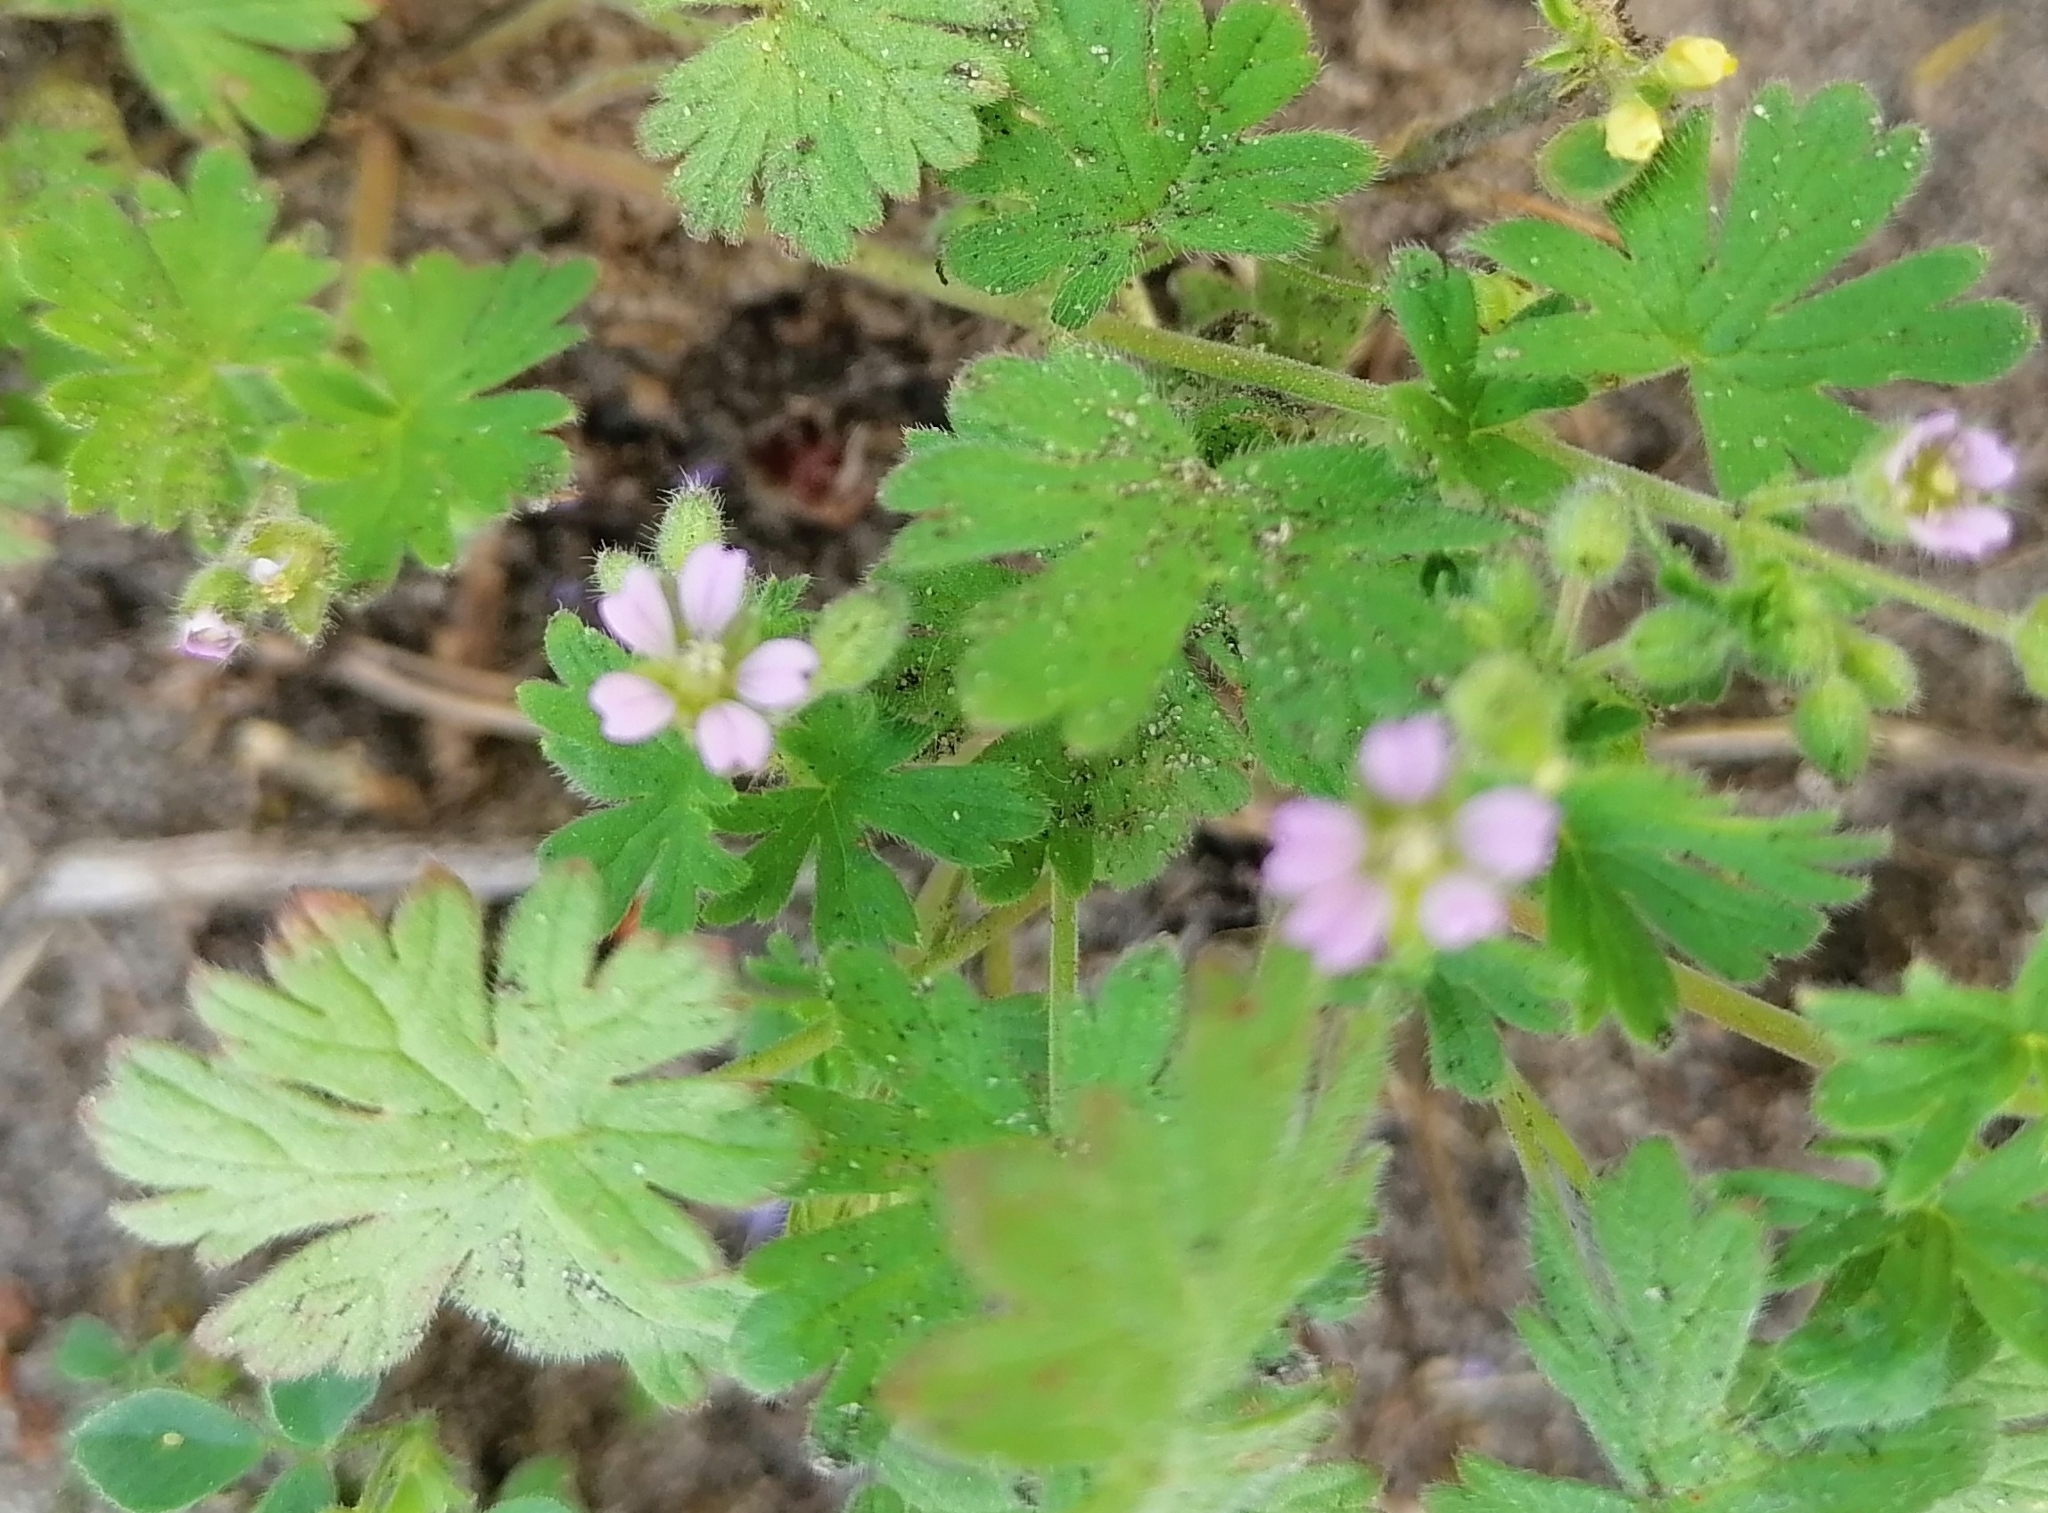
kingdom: Plantae
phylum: Tracheophyta
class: Magnoliopsida
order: Geraniales
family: Geraniaceae
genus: Geranium
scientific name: Geranium pusillum
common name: Small geranium
